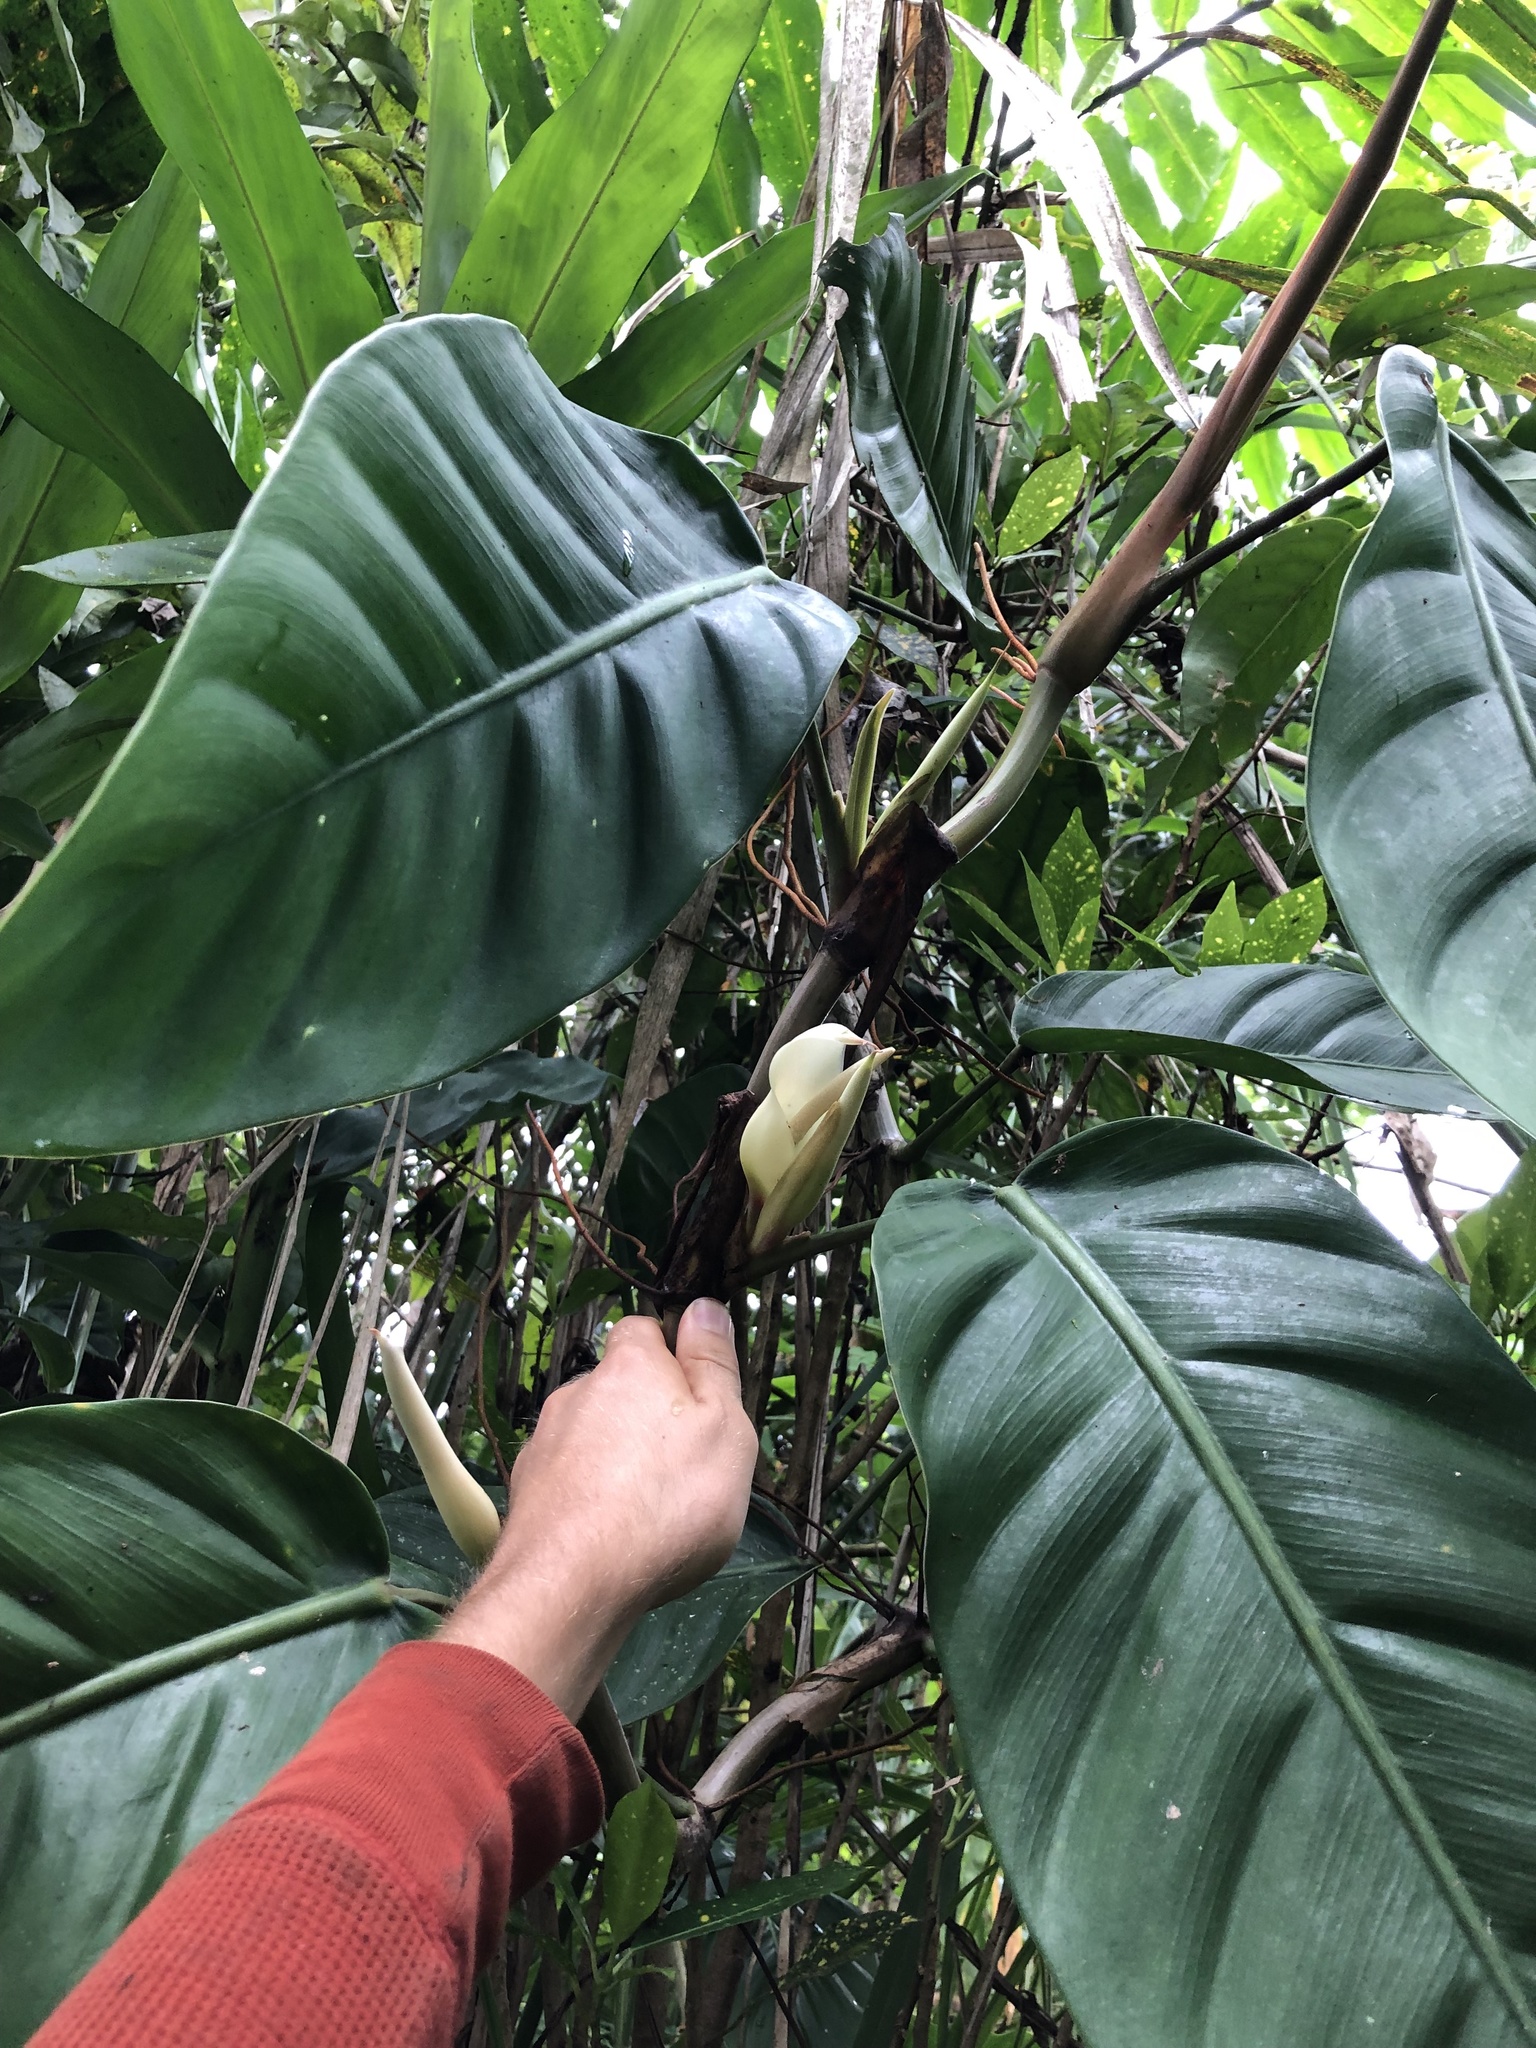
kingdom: Plantae
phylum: Tracheophyta
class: Liliopsida
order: Alismatales
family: Araceae
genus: Philodendron
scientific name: Philodendron clarkei
